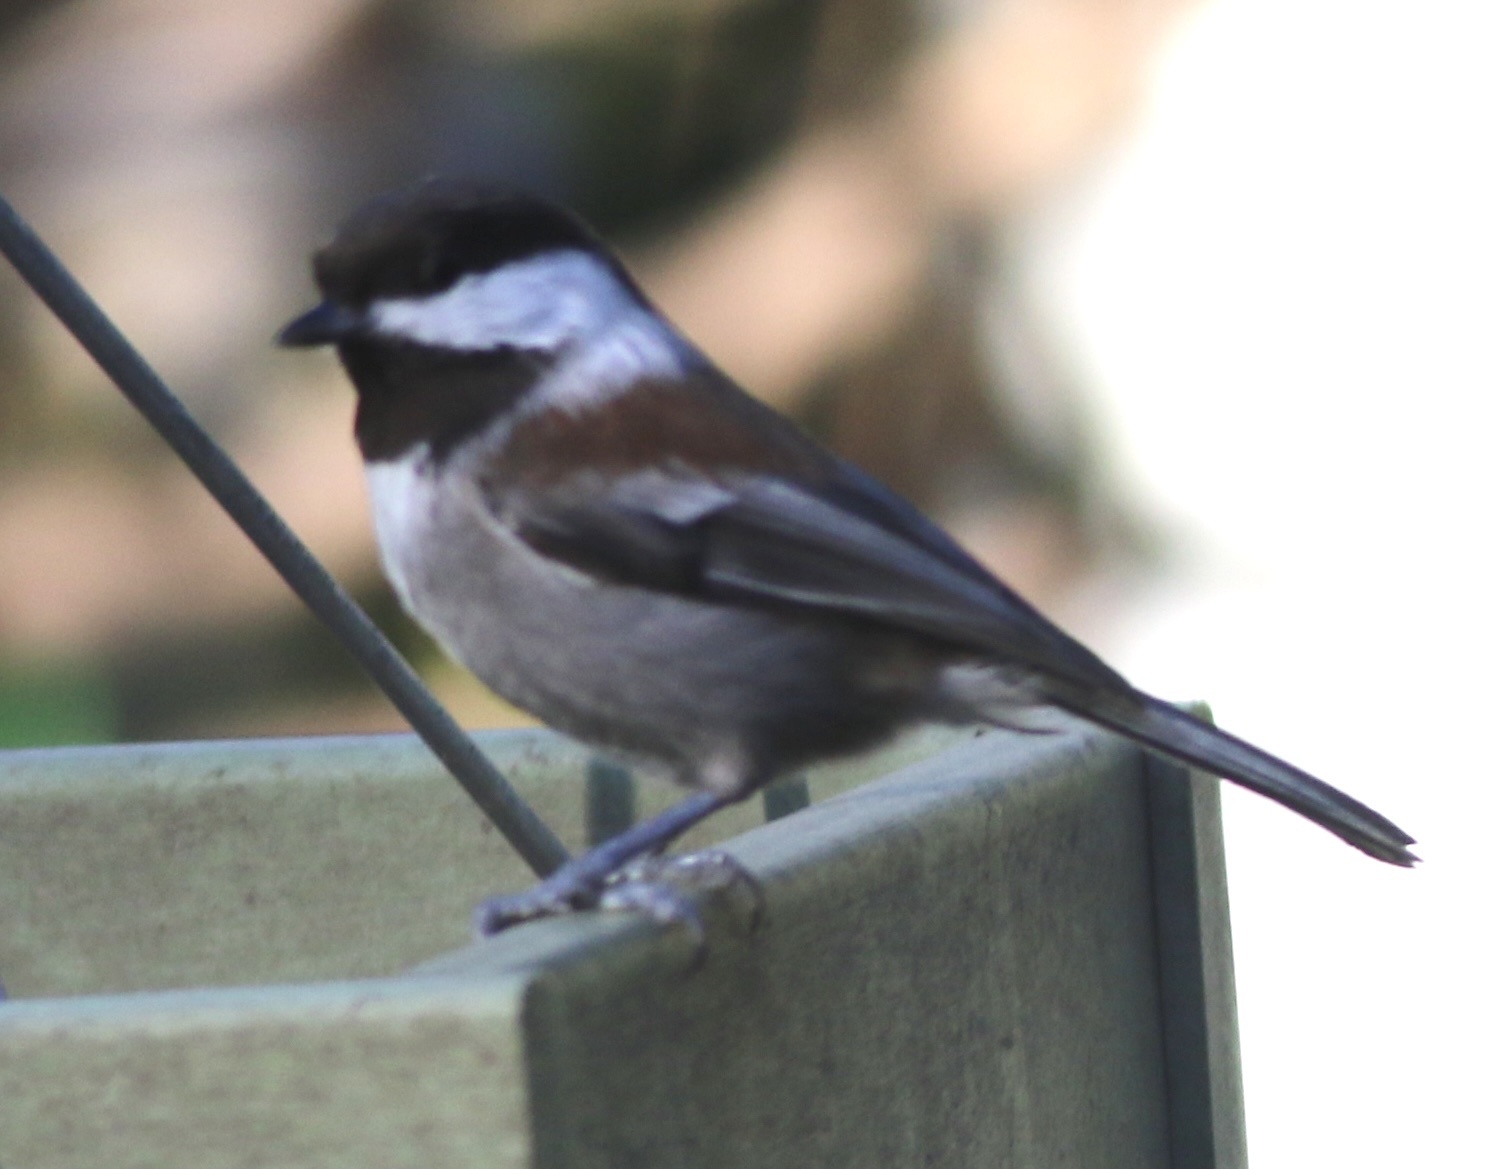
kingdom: Animalia
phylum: Chordata
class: Aves
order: Passeriformes
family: Paridae
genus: Poecile
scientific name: Poecile rufescens
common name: Chestnut-backed chickadee
